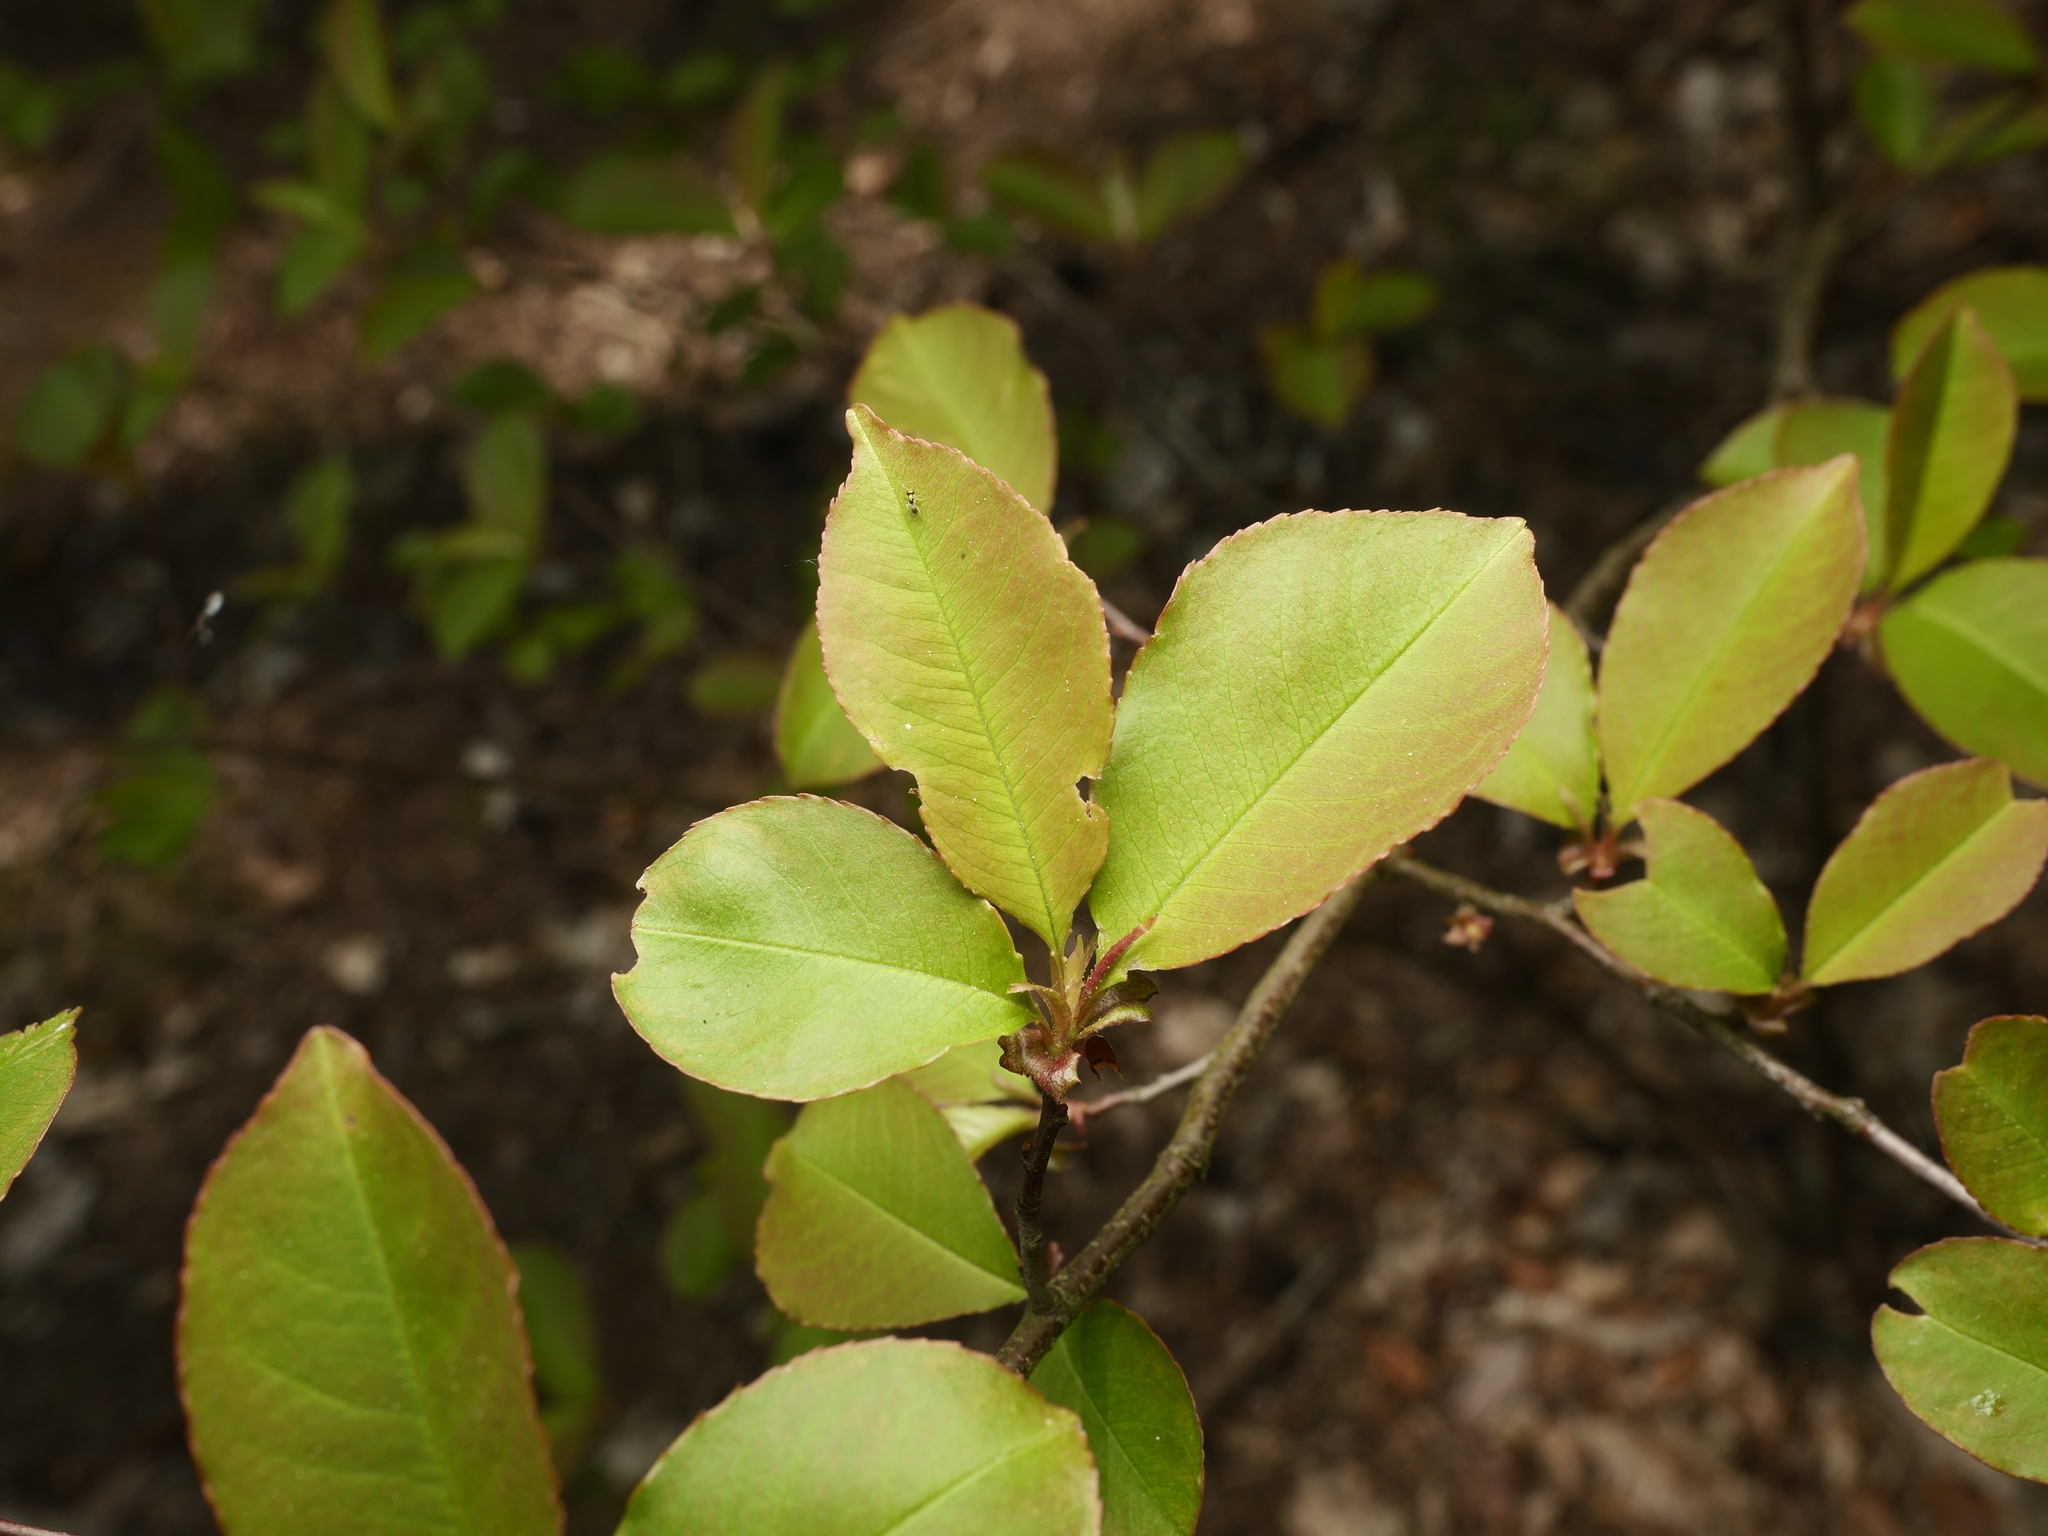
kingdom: Plantae
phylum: Tracheophyta
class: Magnoliopsida
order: Rosales
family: Rosaceae
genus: Prunus
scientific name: Prunus serotina
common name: Black cherry
